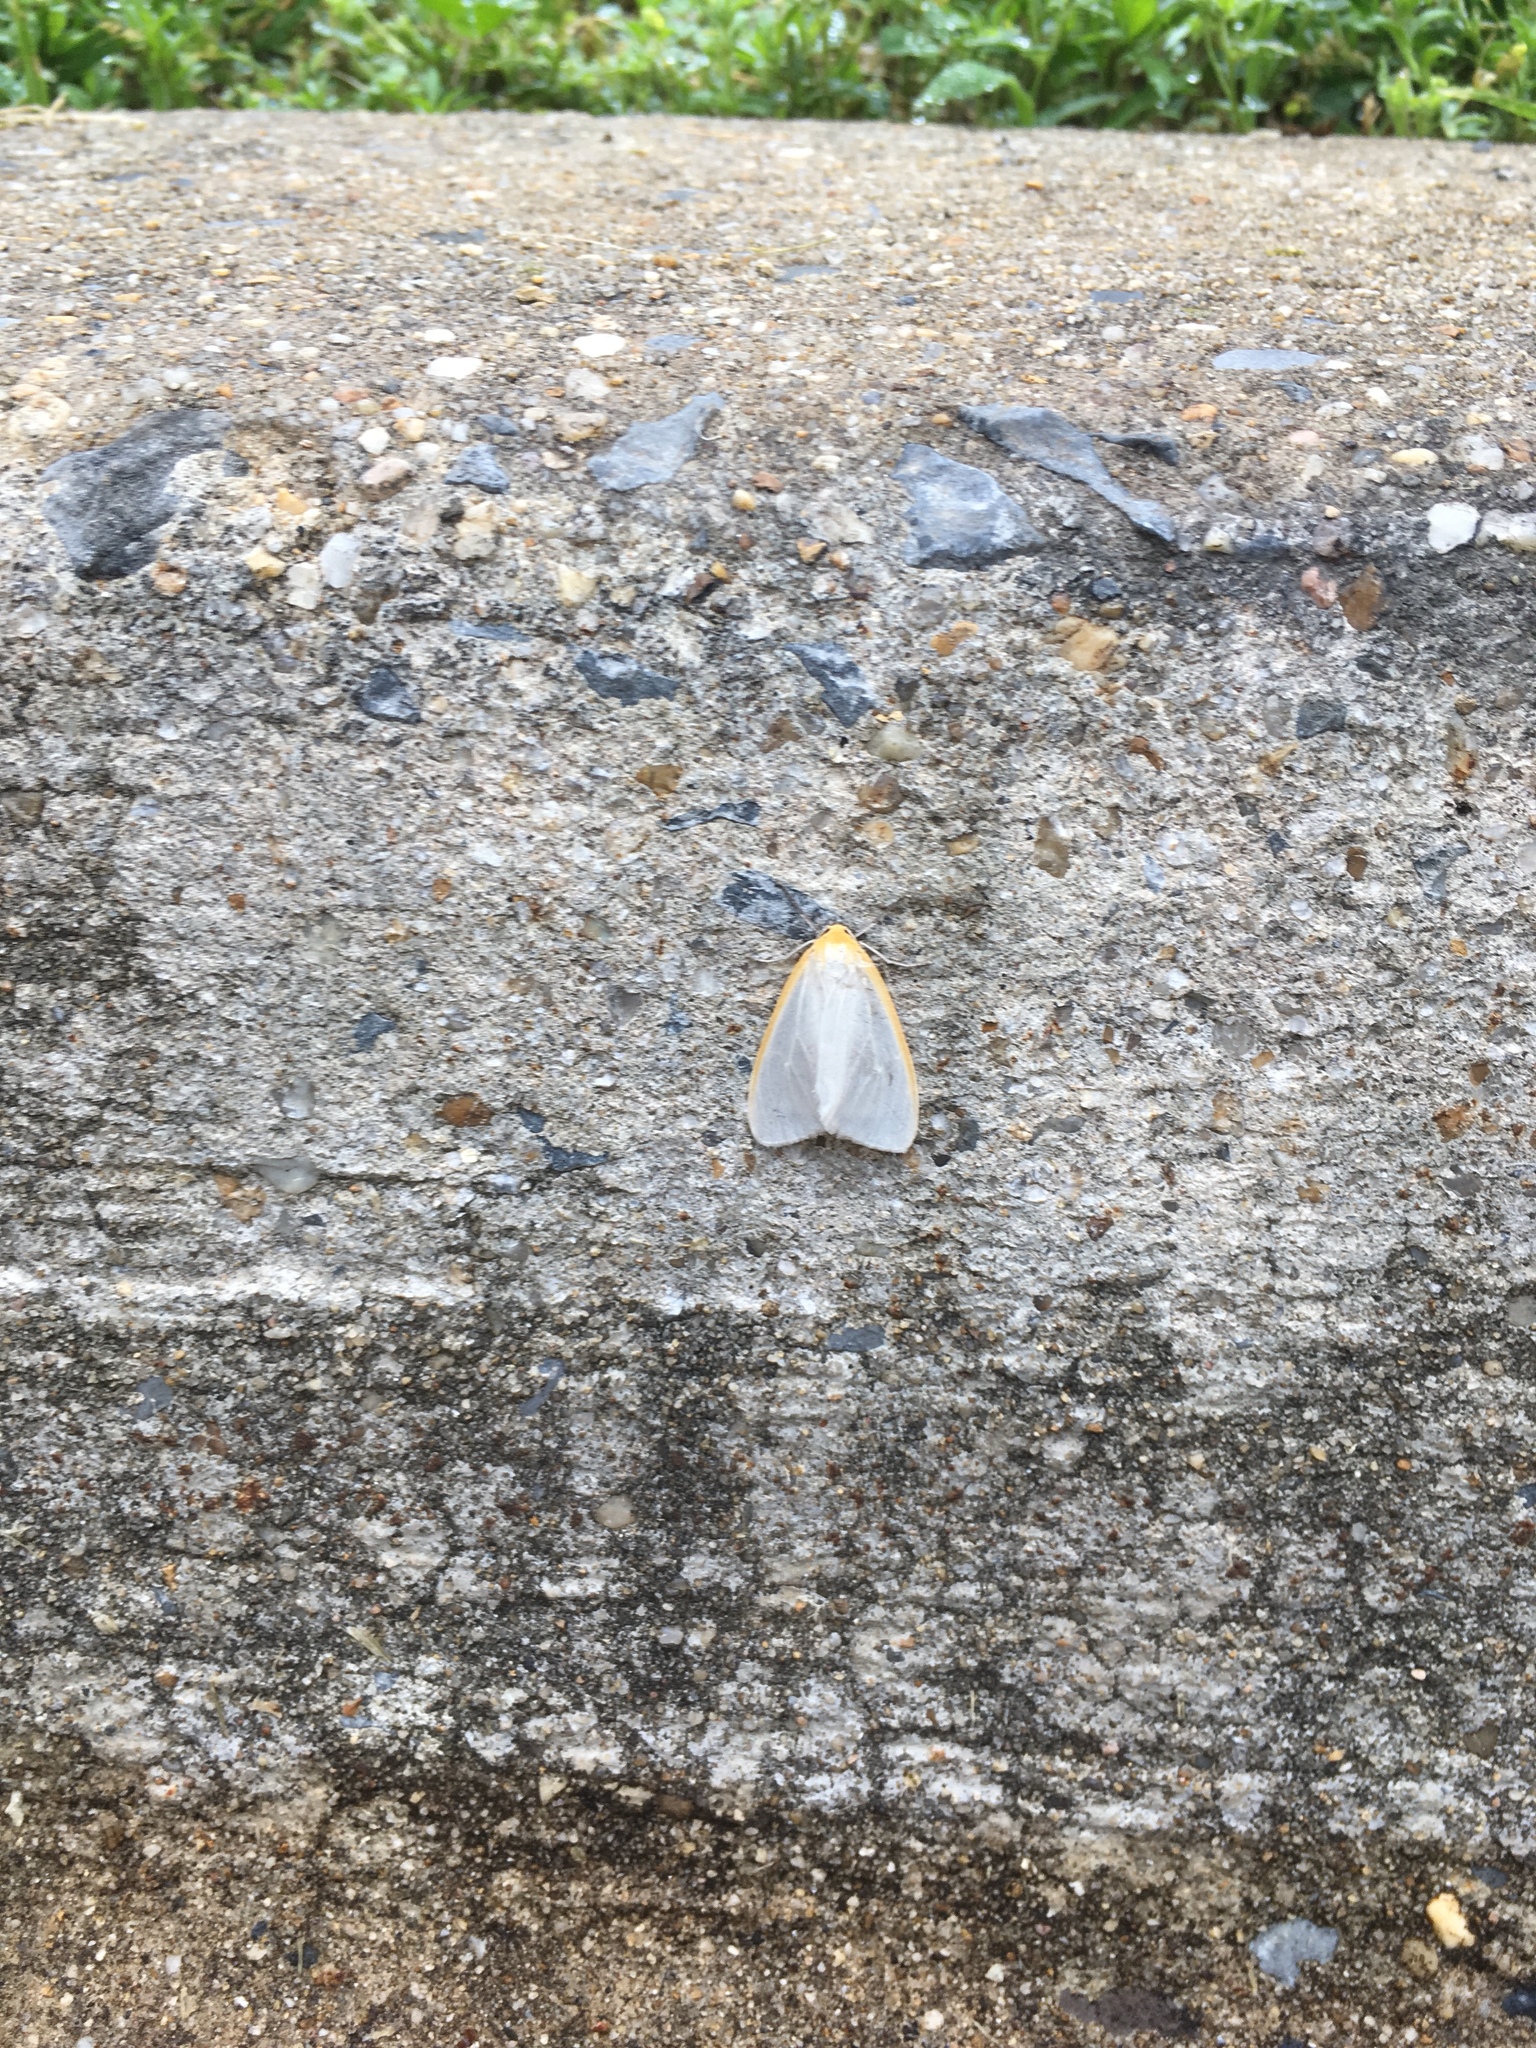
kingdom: Animalia
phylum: Arthropoda
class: Insecta
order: Lepidoptera
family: Erebidae
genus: Cycnia
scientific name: Cycnia tenera
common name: Delicate cycnia moth
